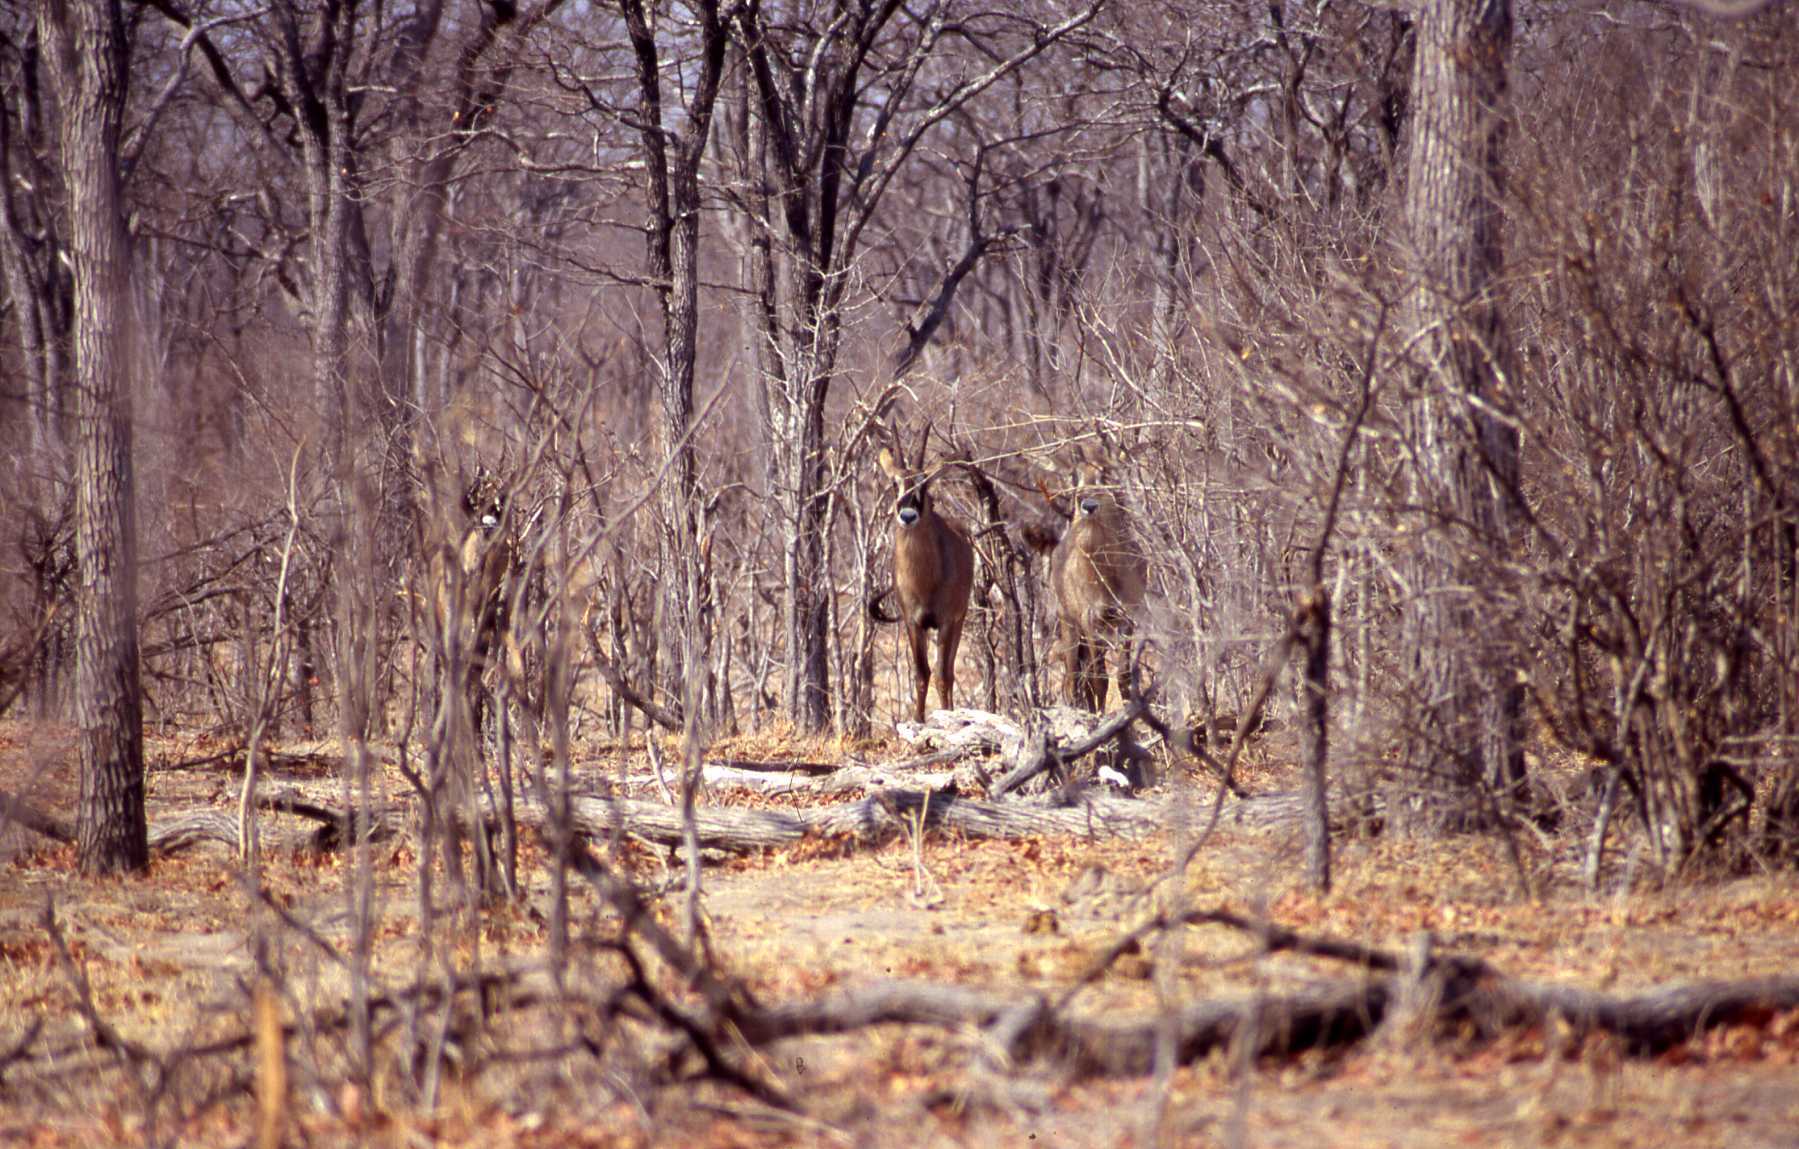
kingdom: Animalia
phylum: Chordata
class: Mammalia
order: Artiodactyla
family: Bovidae
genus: Hippotragus
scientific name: Hippotragus equinus
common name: Roan antelope
